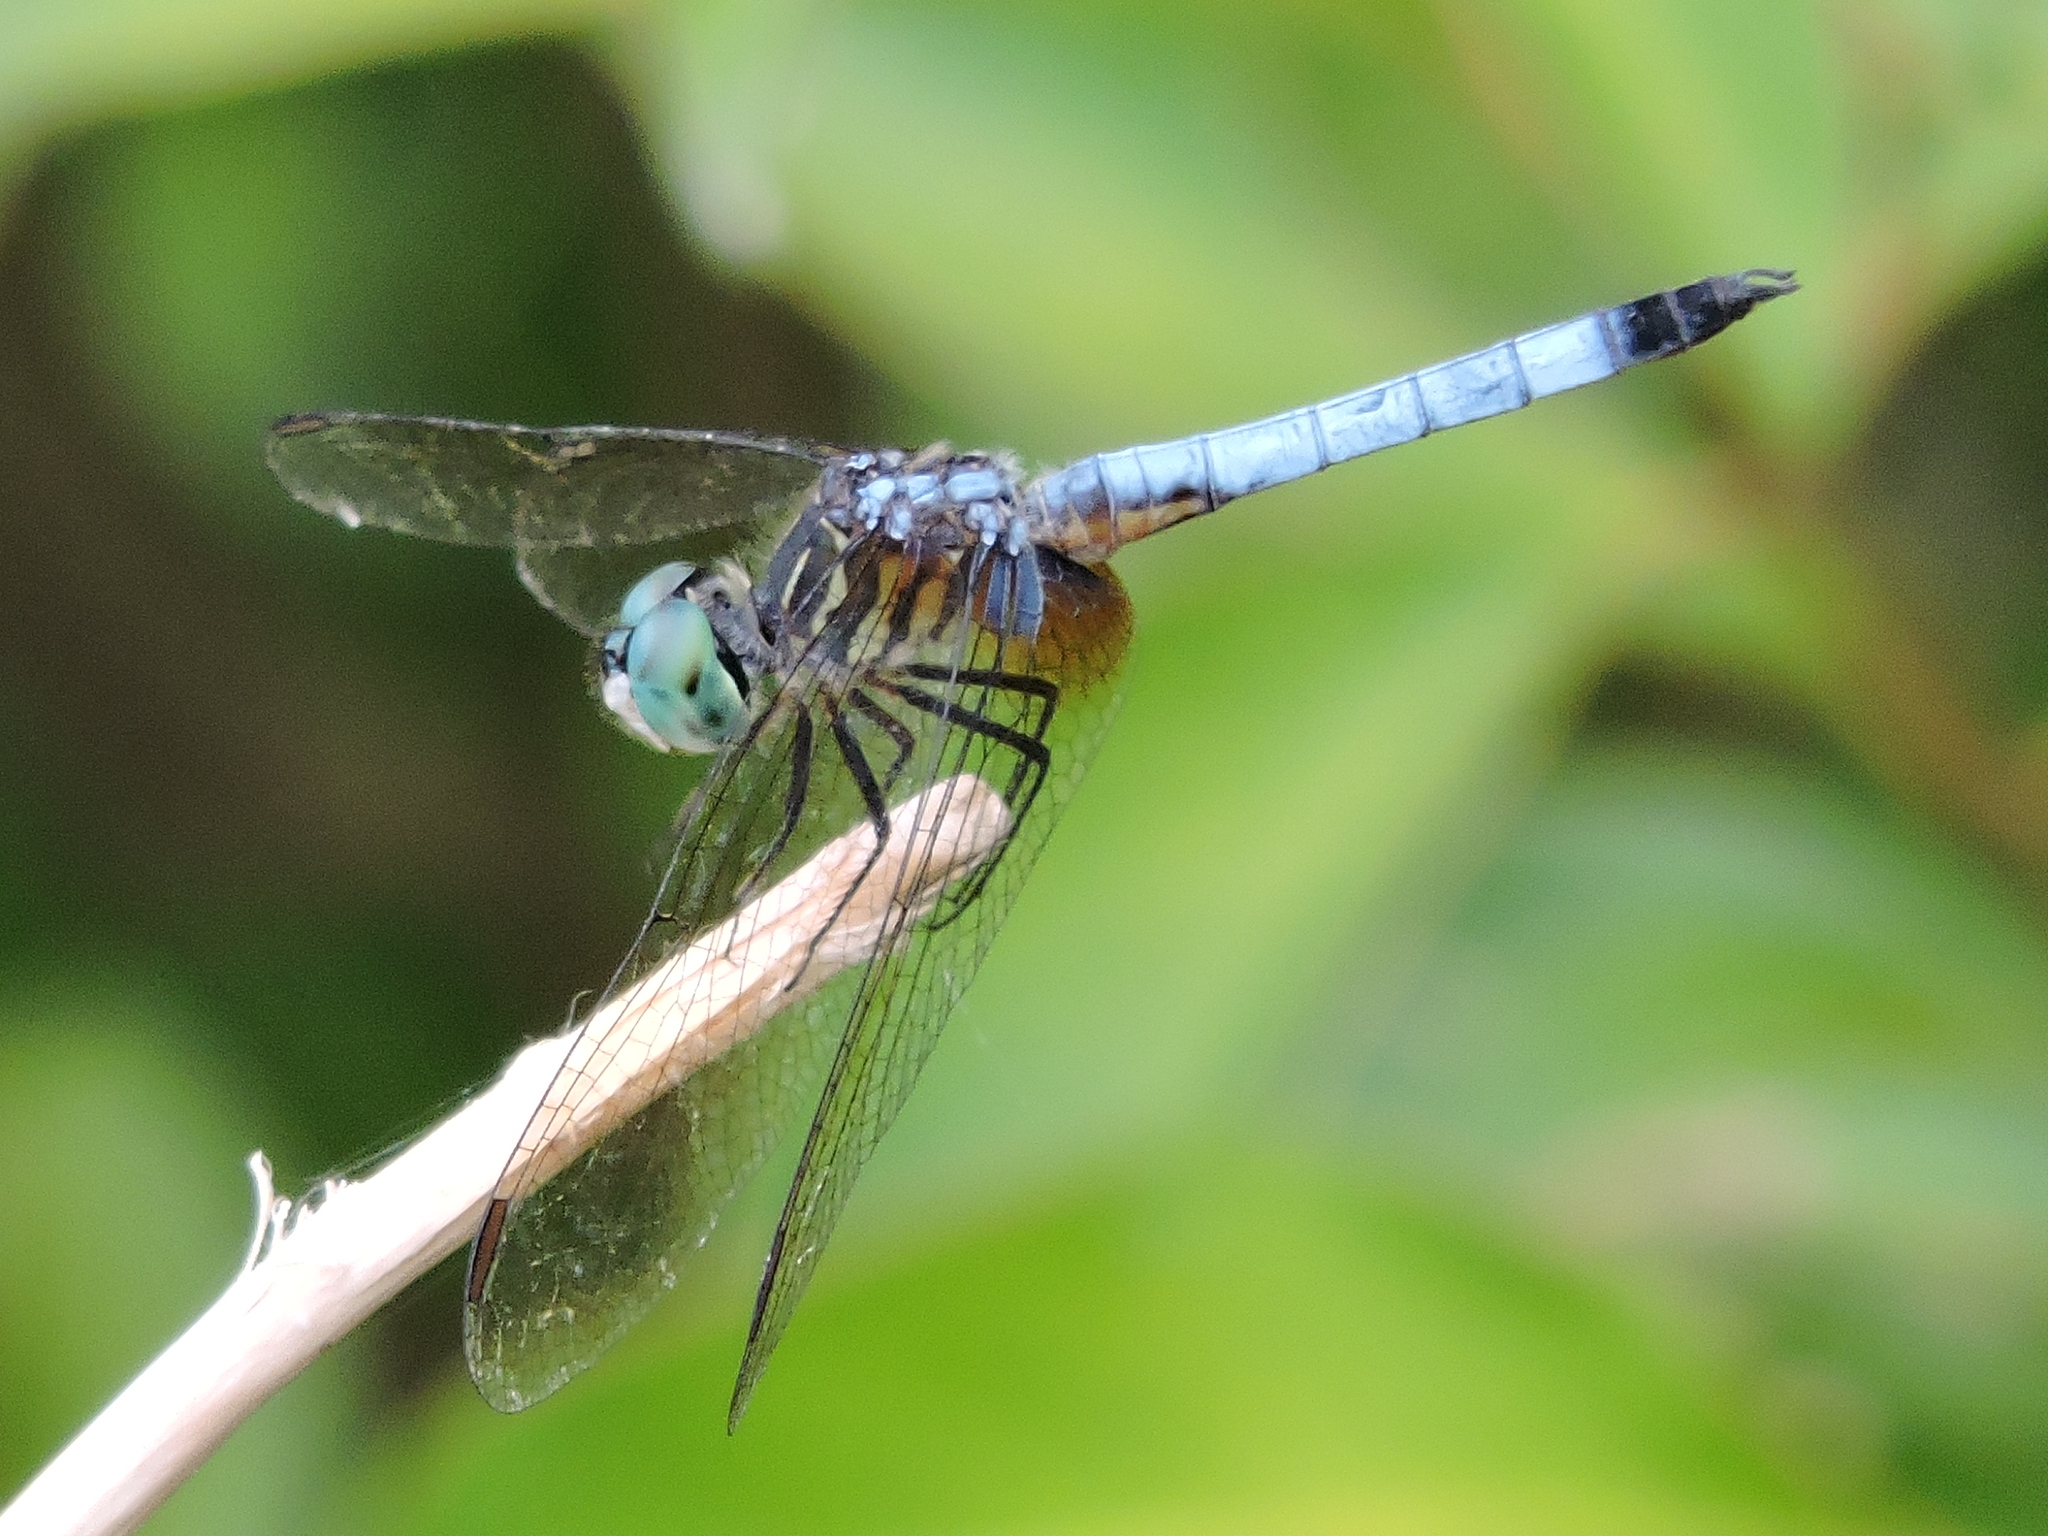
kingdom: Animalia
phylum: Arthropoda
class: Insecta
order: Odonata
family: Libellulidae
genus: Pachydiplax
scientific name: Pachydiplax longipennis
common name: Blue dasher
